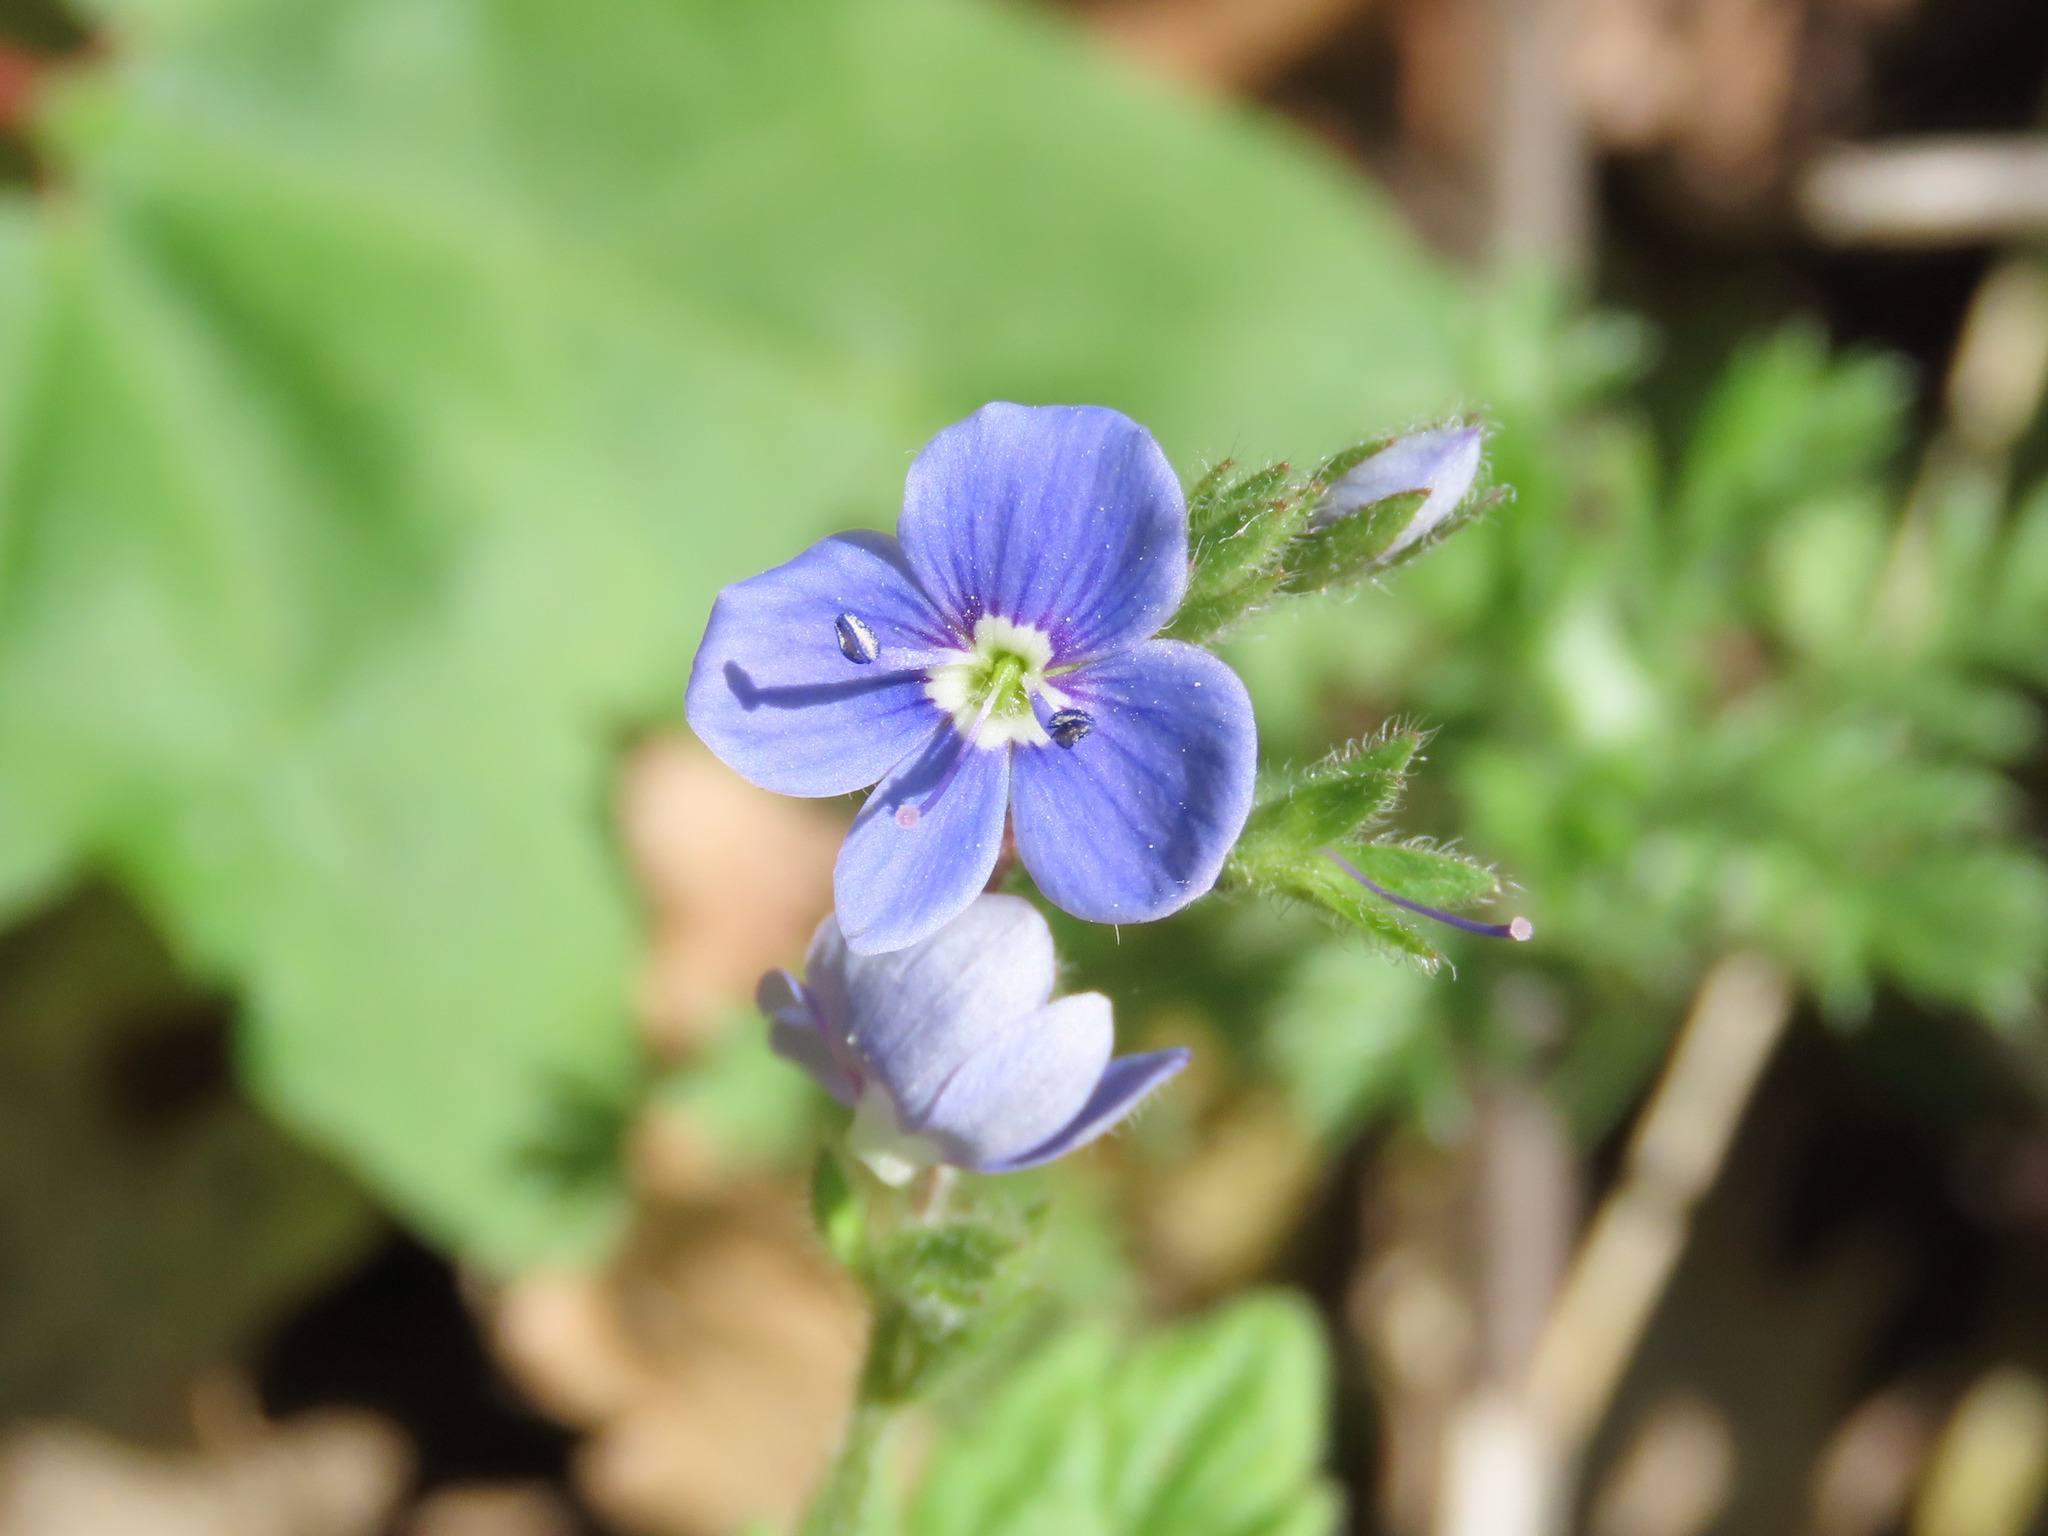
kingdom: Plantae
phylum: Tracheophyta
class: Magnoliopsida
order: Lamiales
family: Plantaginaceae
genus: Veronica
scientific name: Veronica chamaedrys
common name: Germander speedwell
